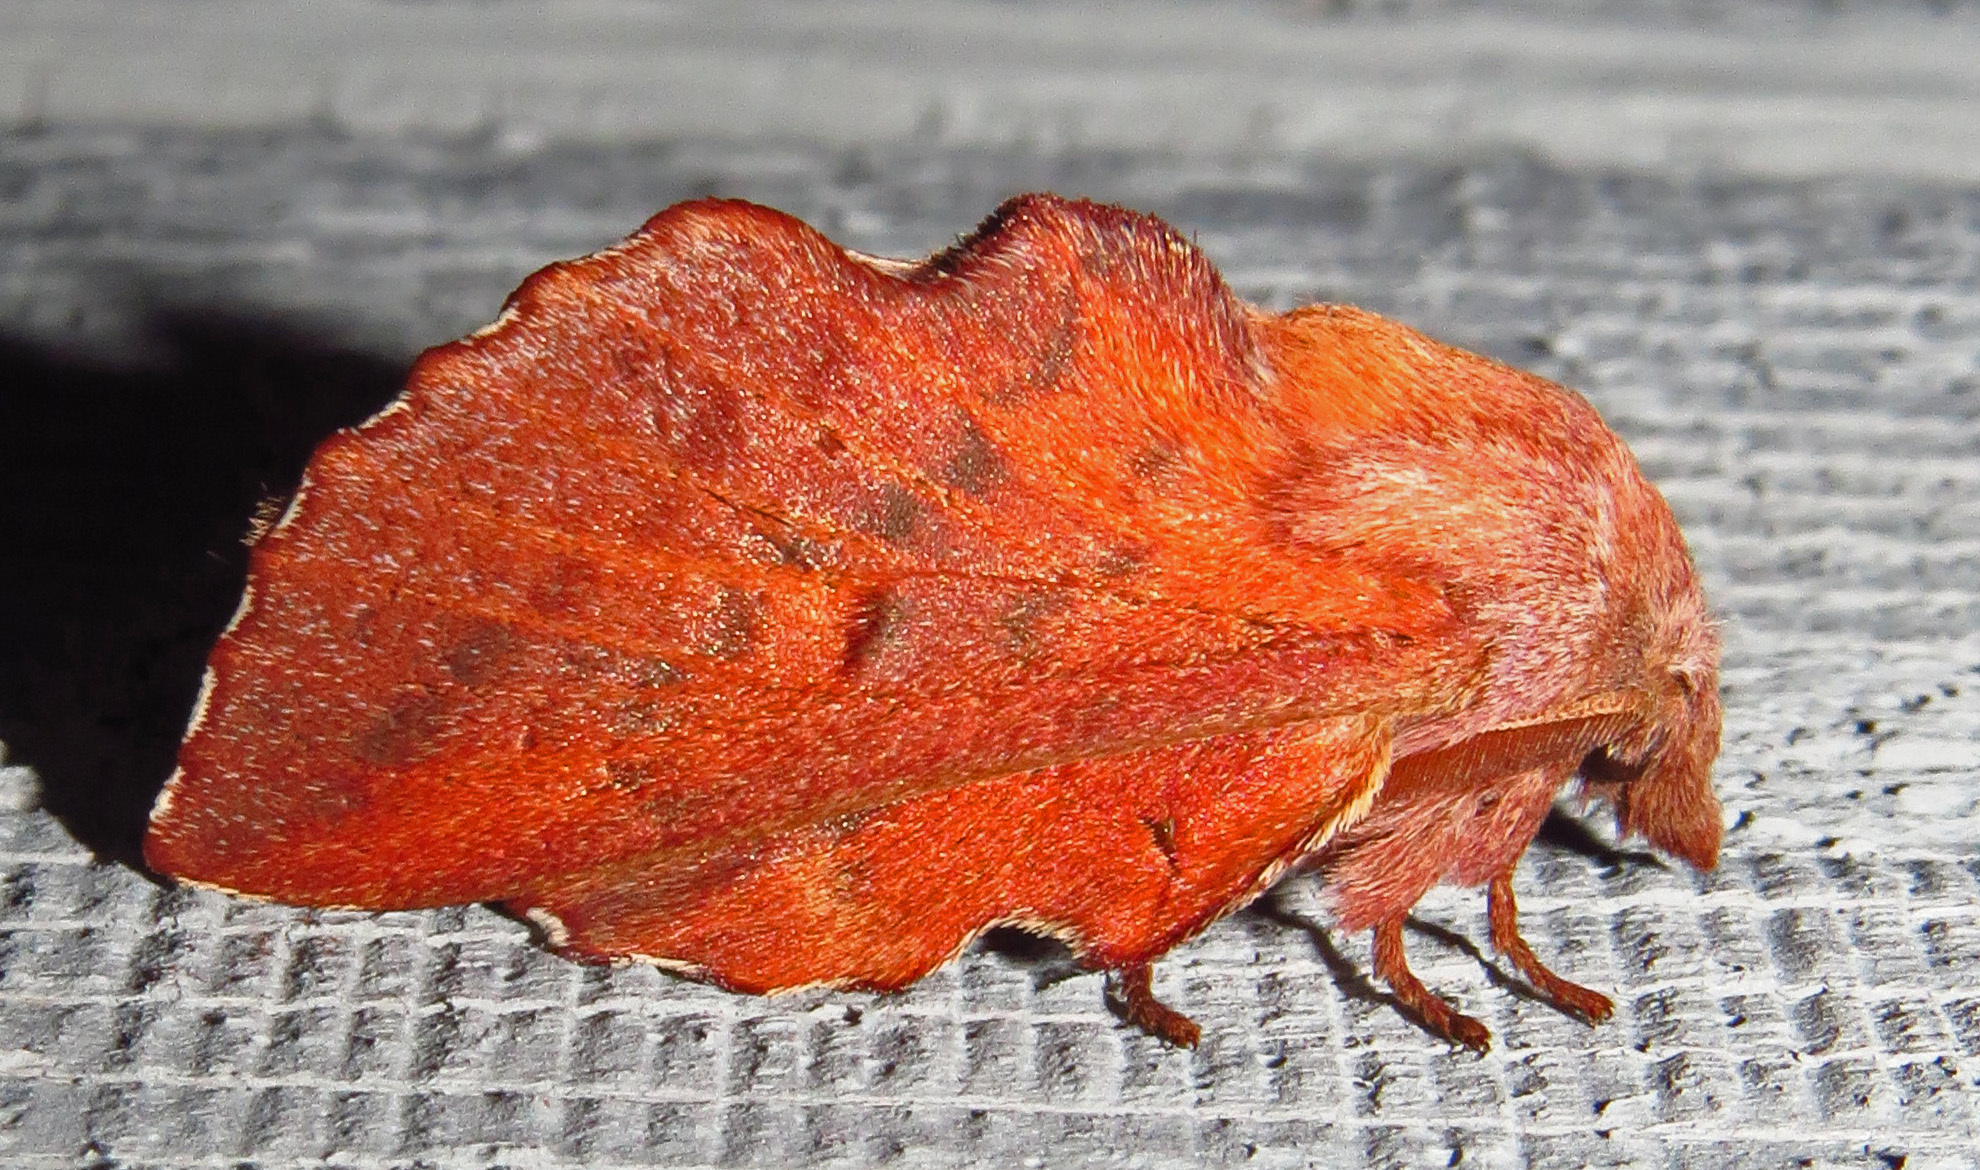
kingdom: Animalia
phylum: Arthropoda
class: Insecta
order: Lepidoptera
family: Lasiocampidae
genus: Phyllodesma
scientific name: Phyllodesma americana
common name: American lappet moth
